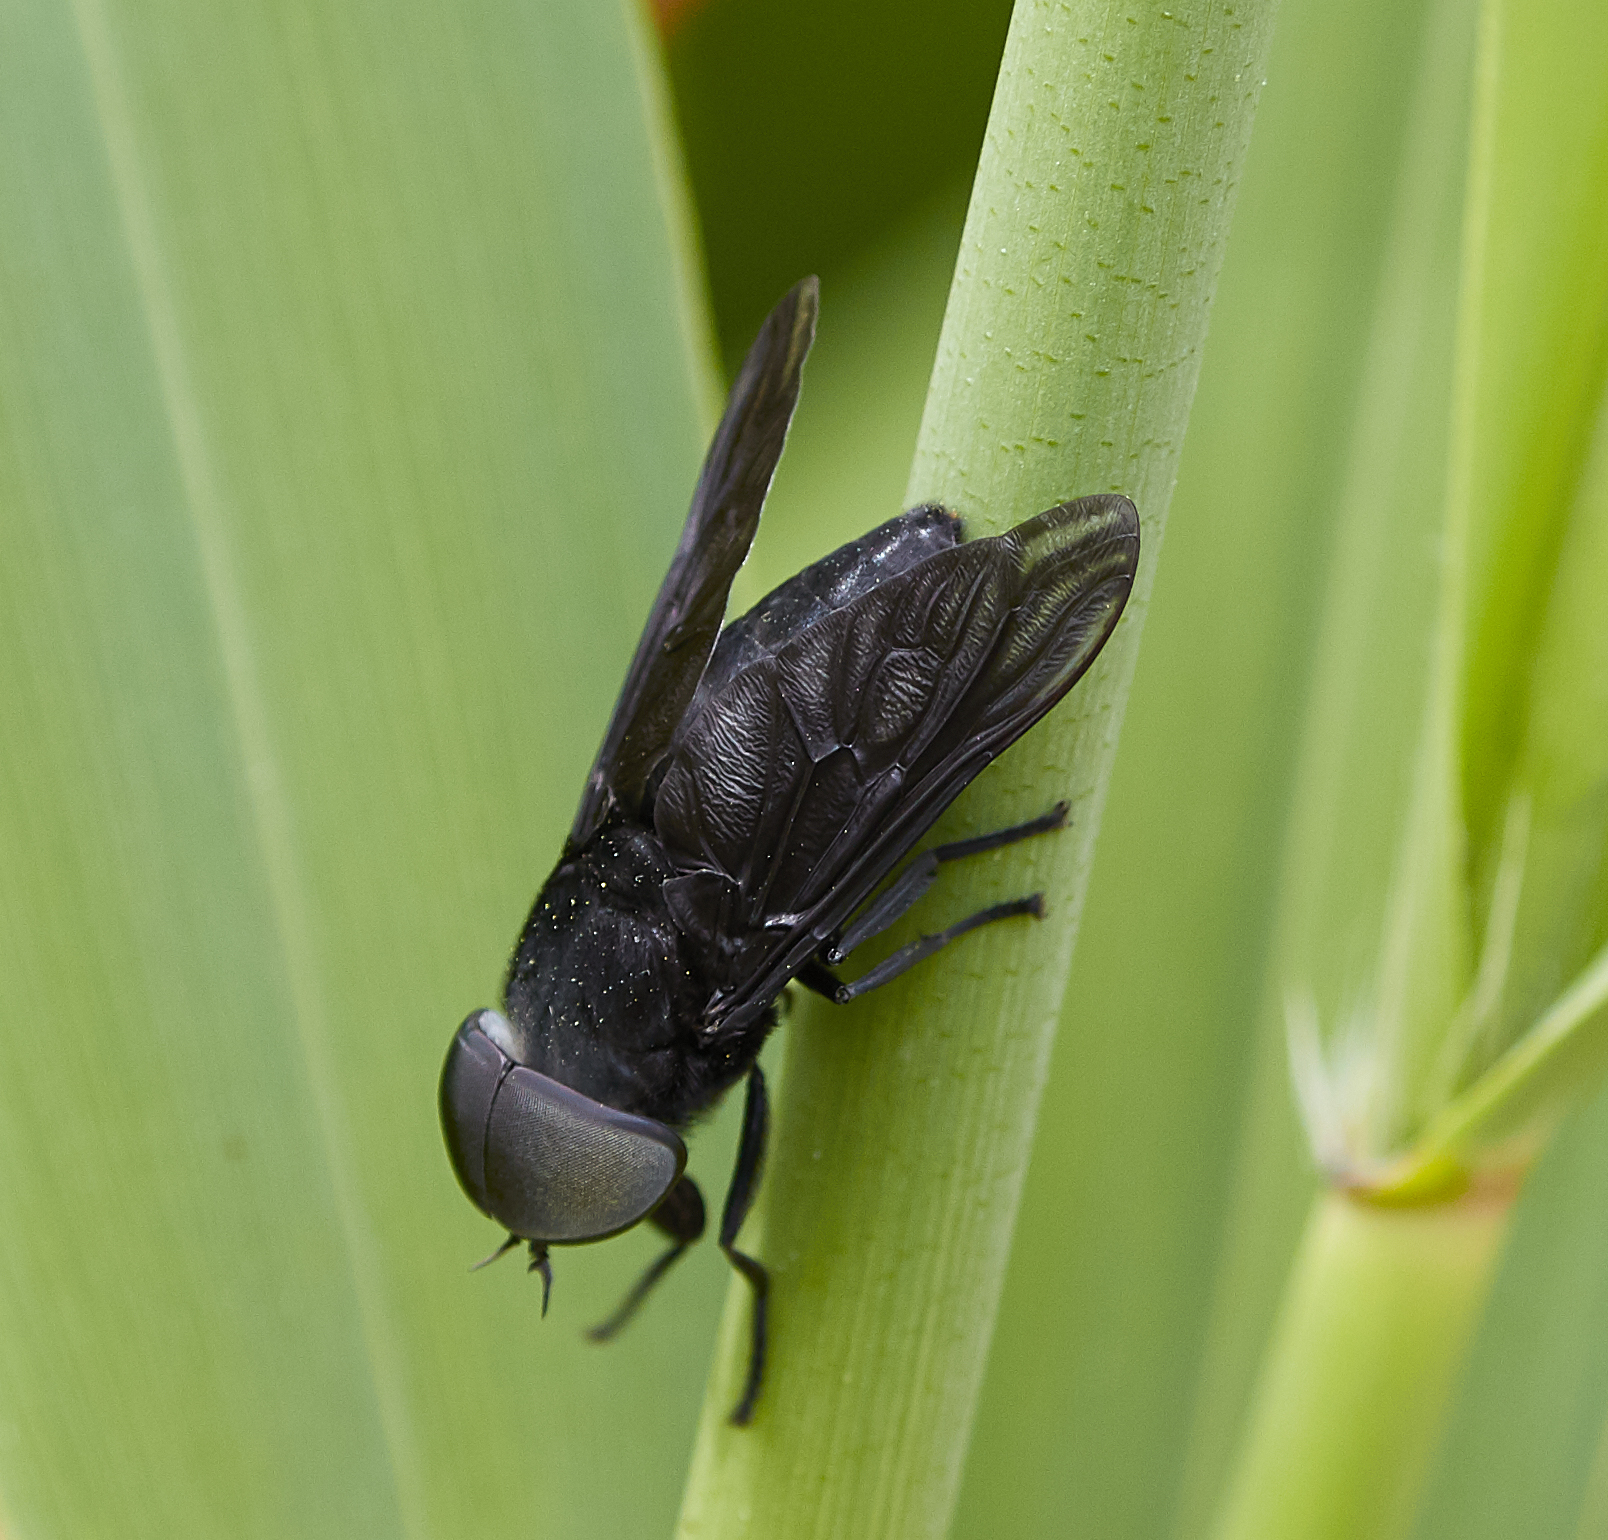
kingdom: Animalia
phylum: Arthropoda
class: Insecta
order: Diptera
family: Tabanidae
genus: Tabanus
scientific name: Tabanus atratus
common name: Black horse fly
